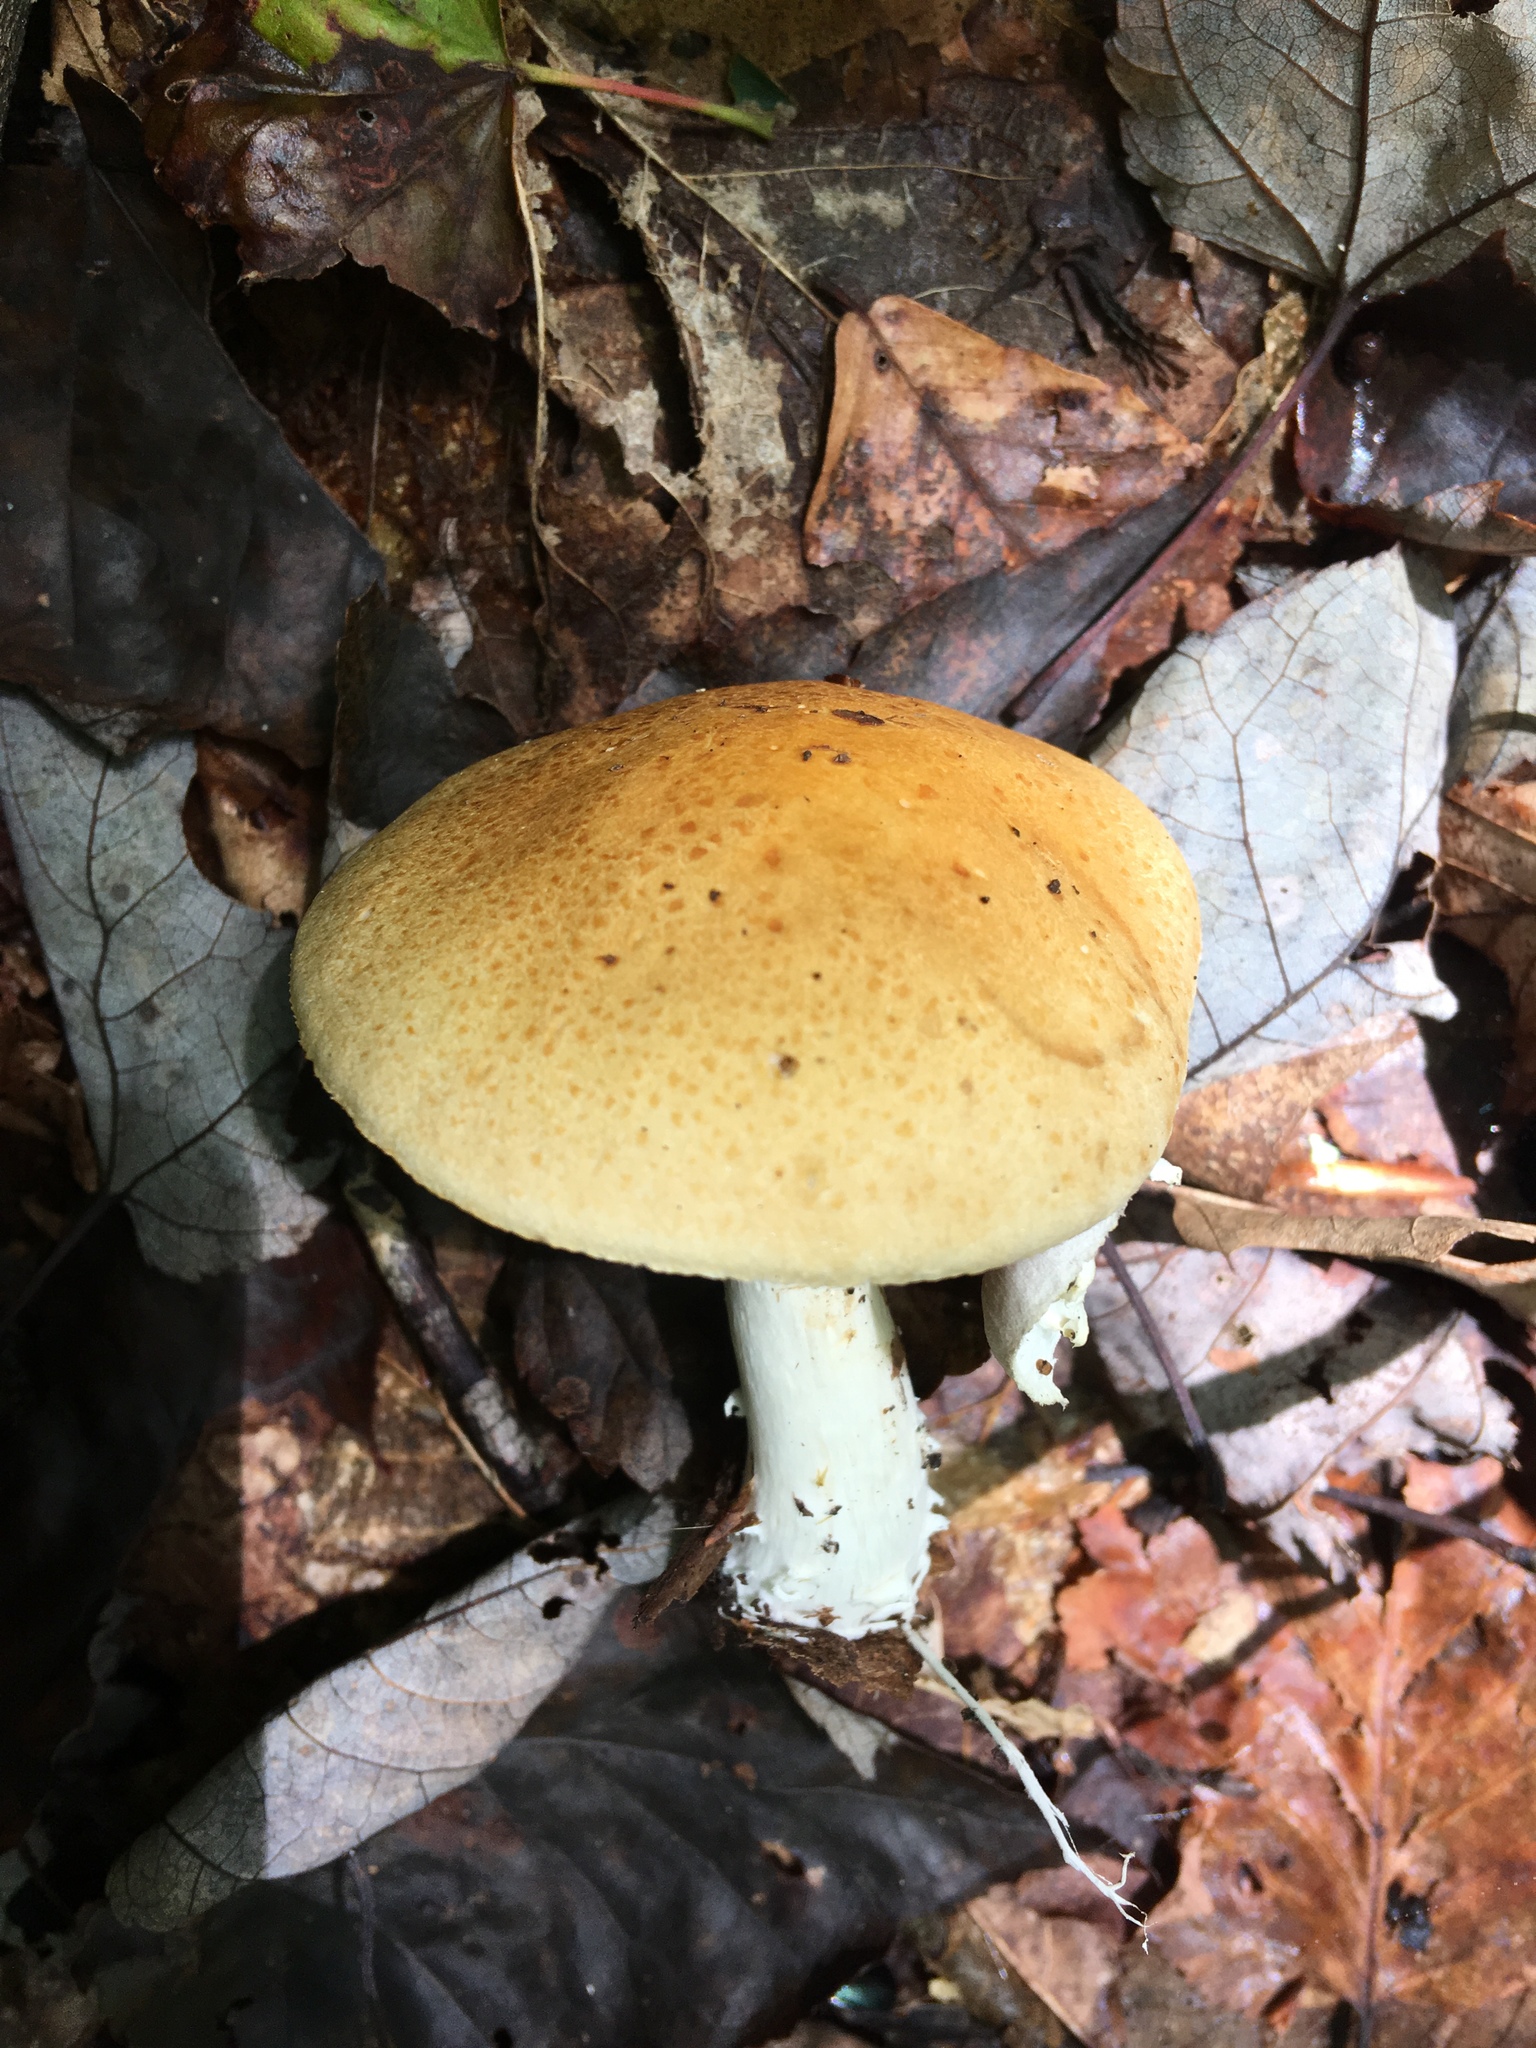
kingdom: Fungi
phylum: Basidiomycota
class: Agaricomycetes
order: Agaricales
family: Strophariaceae
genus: Stropharia
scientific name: Stropharia hardii
